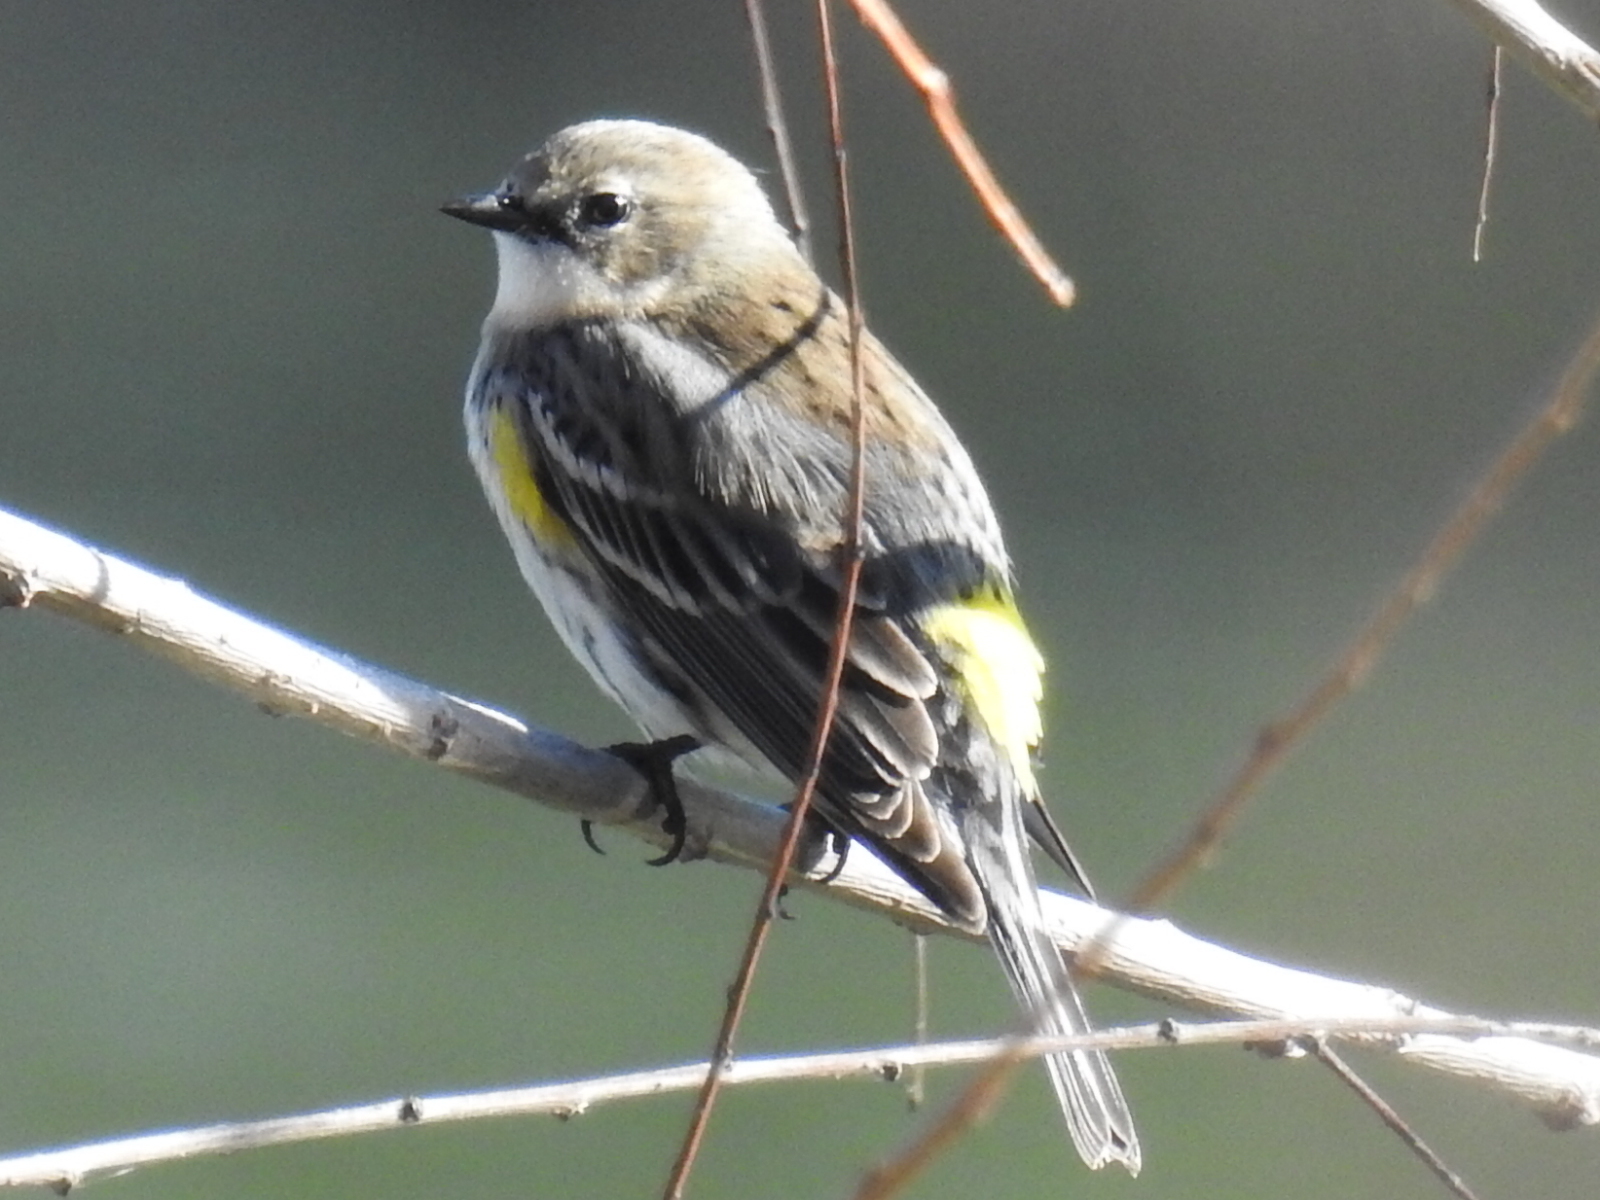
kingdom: Animalia
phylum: Chordata
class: Aves
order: Passeriformes
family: Parulidae
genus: Setophaga
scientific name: Setophaga coronata
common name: Myrtle warbler
